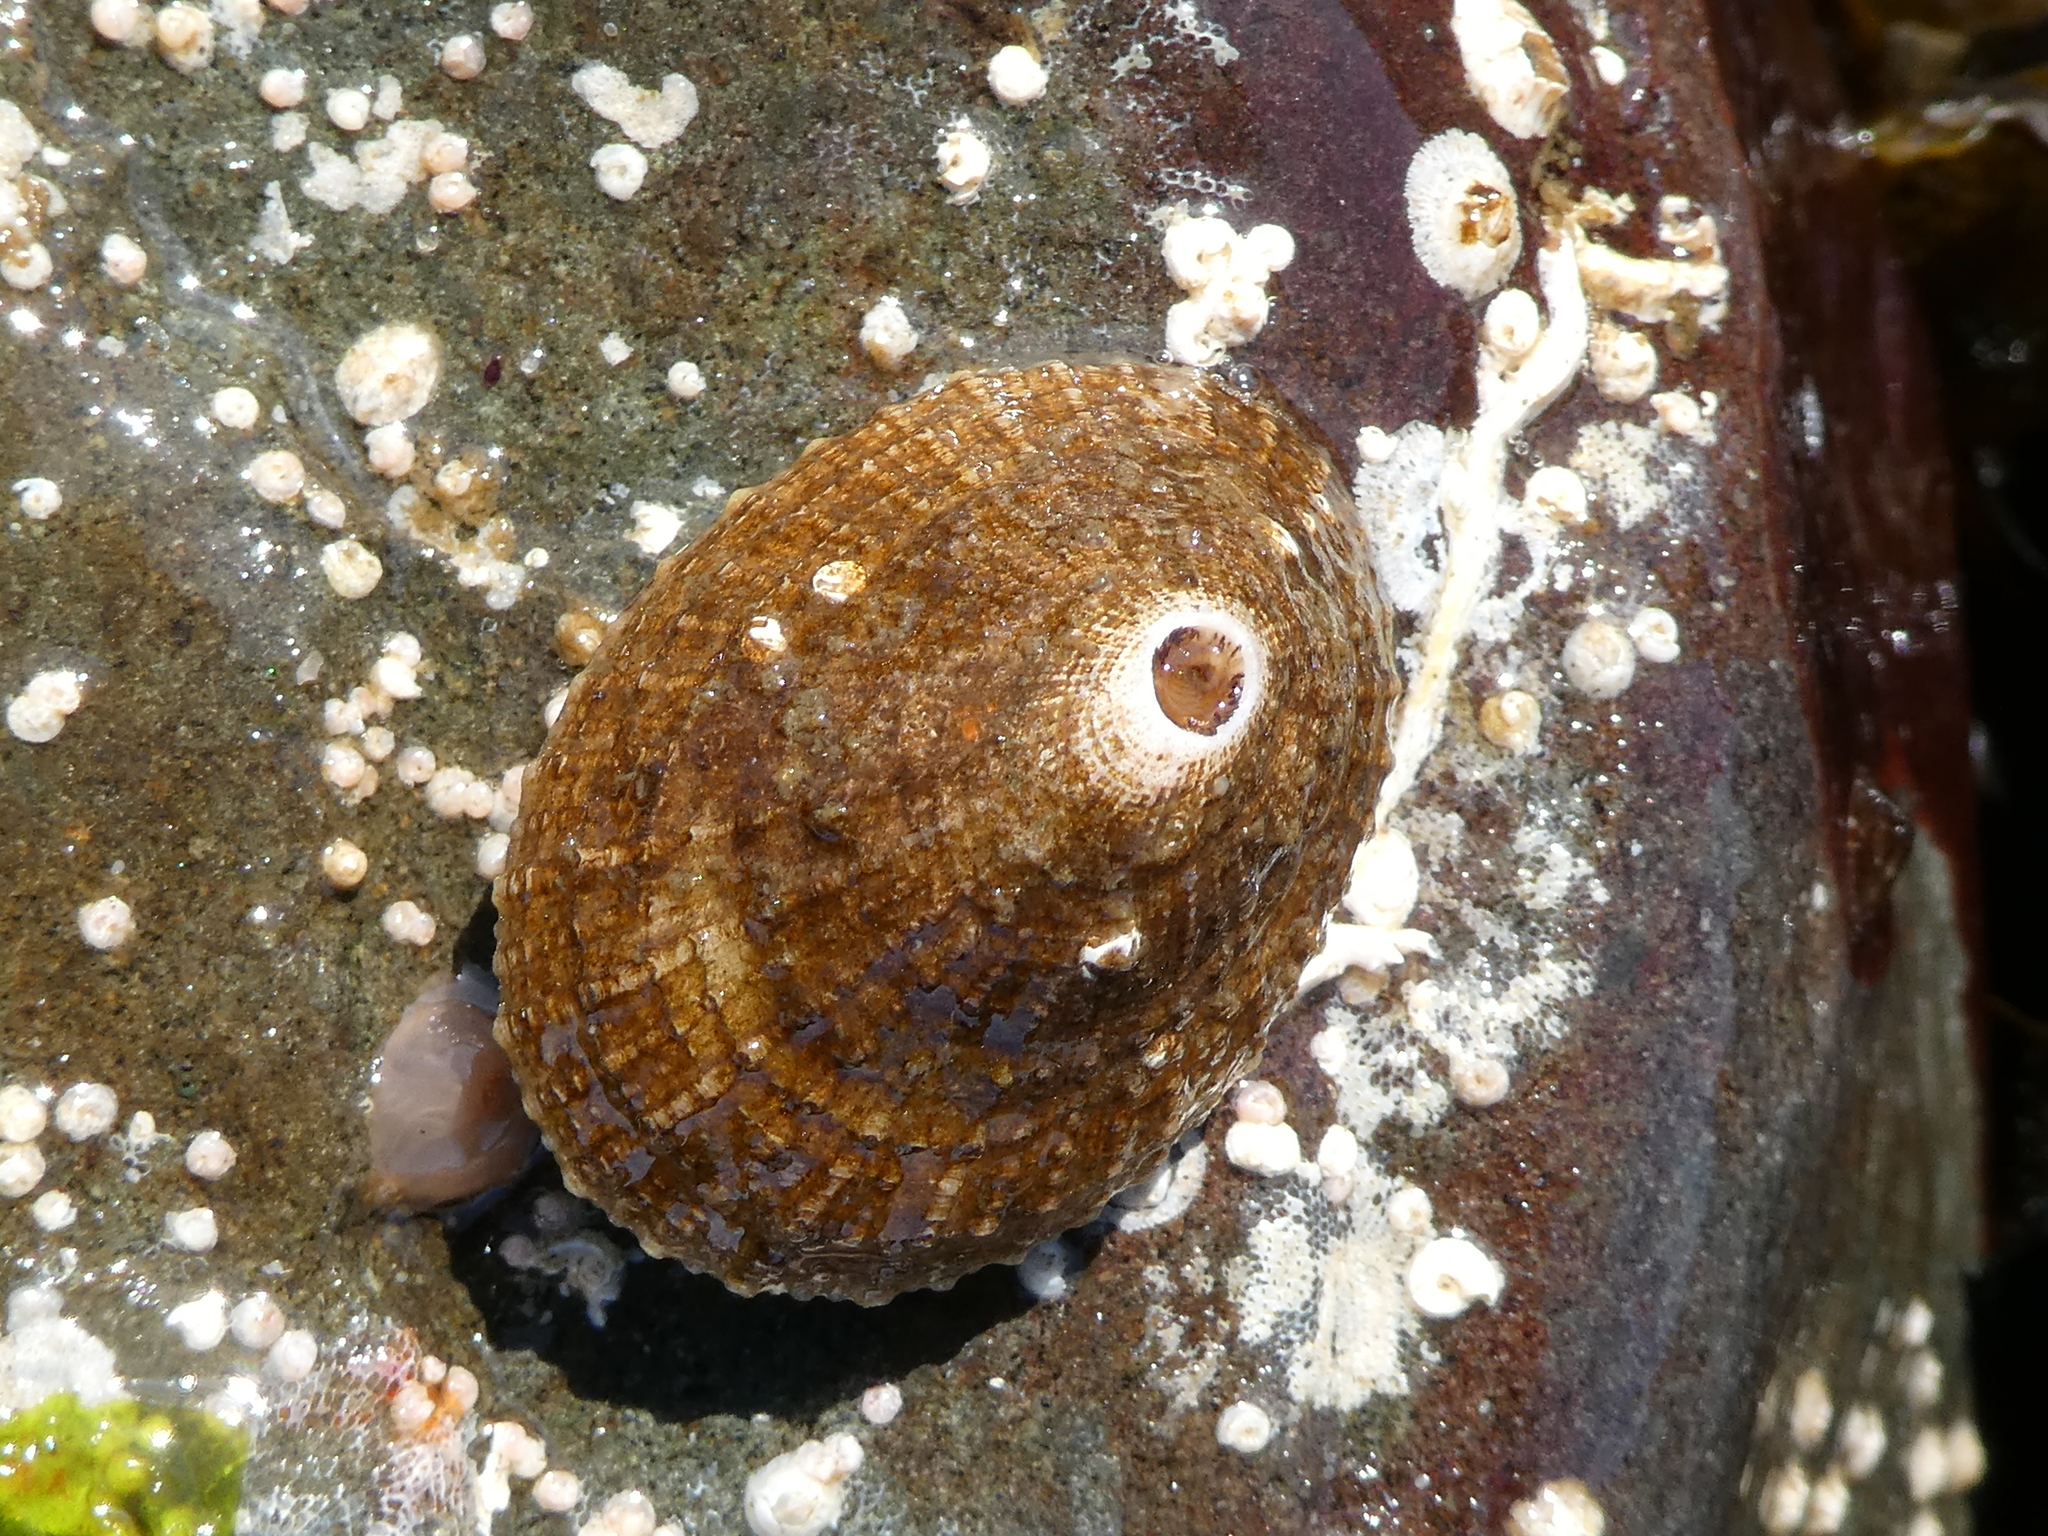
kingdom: Animalia
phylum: Mollusca
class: Gastropoda
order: Lepetellida
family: Fissurellidae
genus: Diodora
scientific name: Diodora aspera
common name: Rough keyhole limpet
